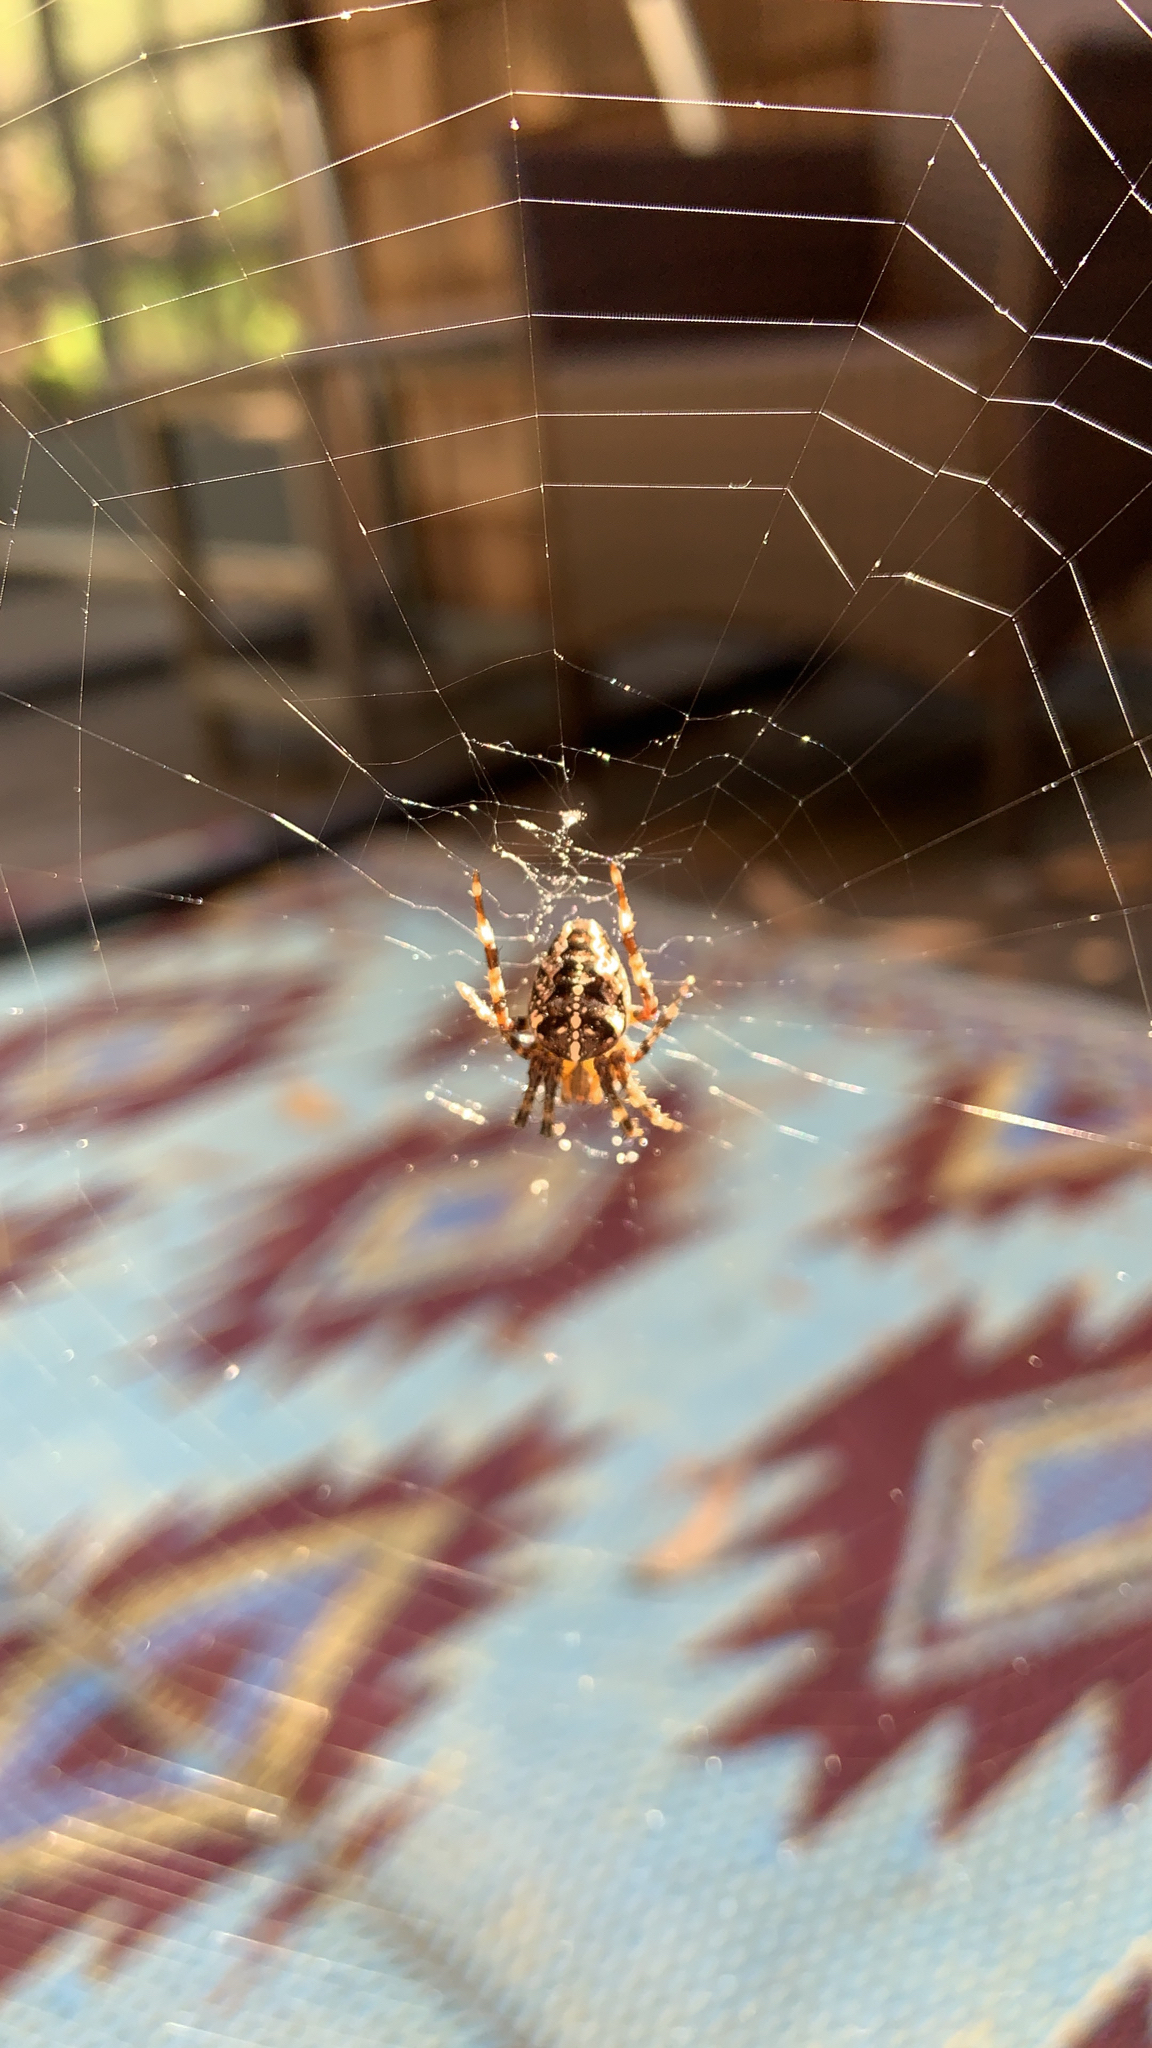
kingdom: Animalia
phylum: Arthropoda
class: Arachnida
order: Araneae
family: Araneidae
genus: Araneus
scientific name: Araneus diadematus
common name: Cross orbweaver
